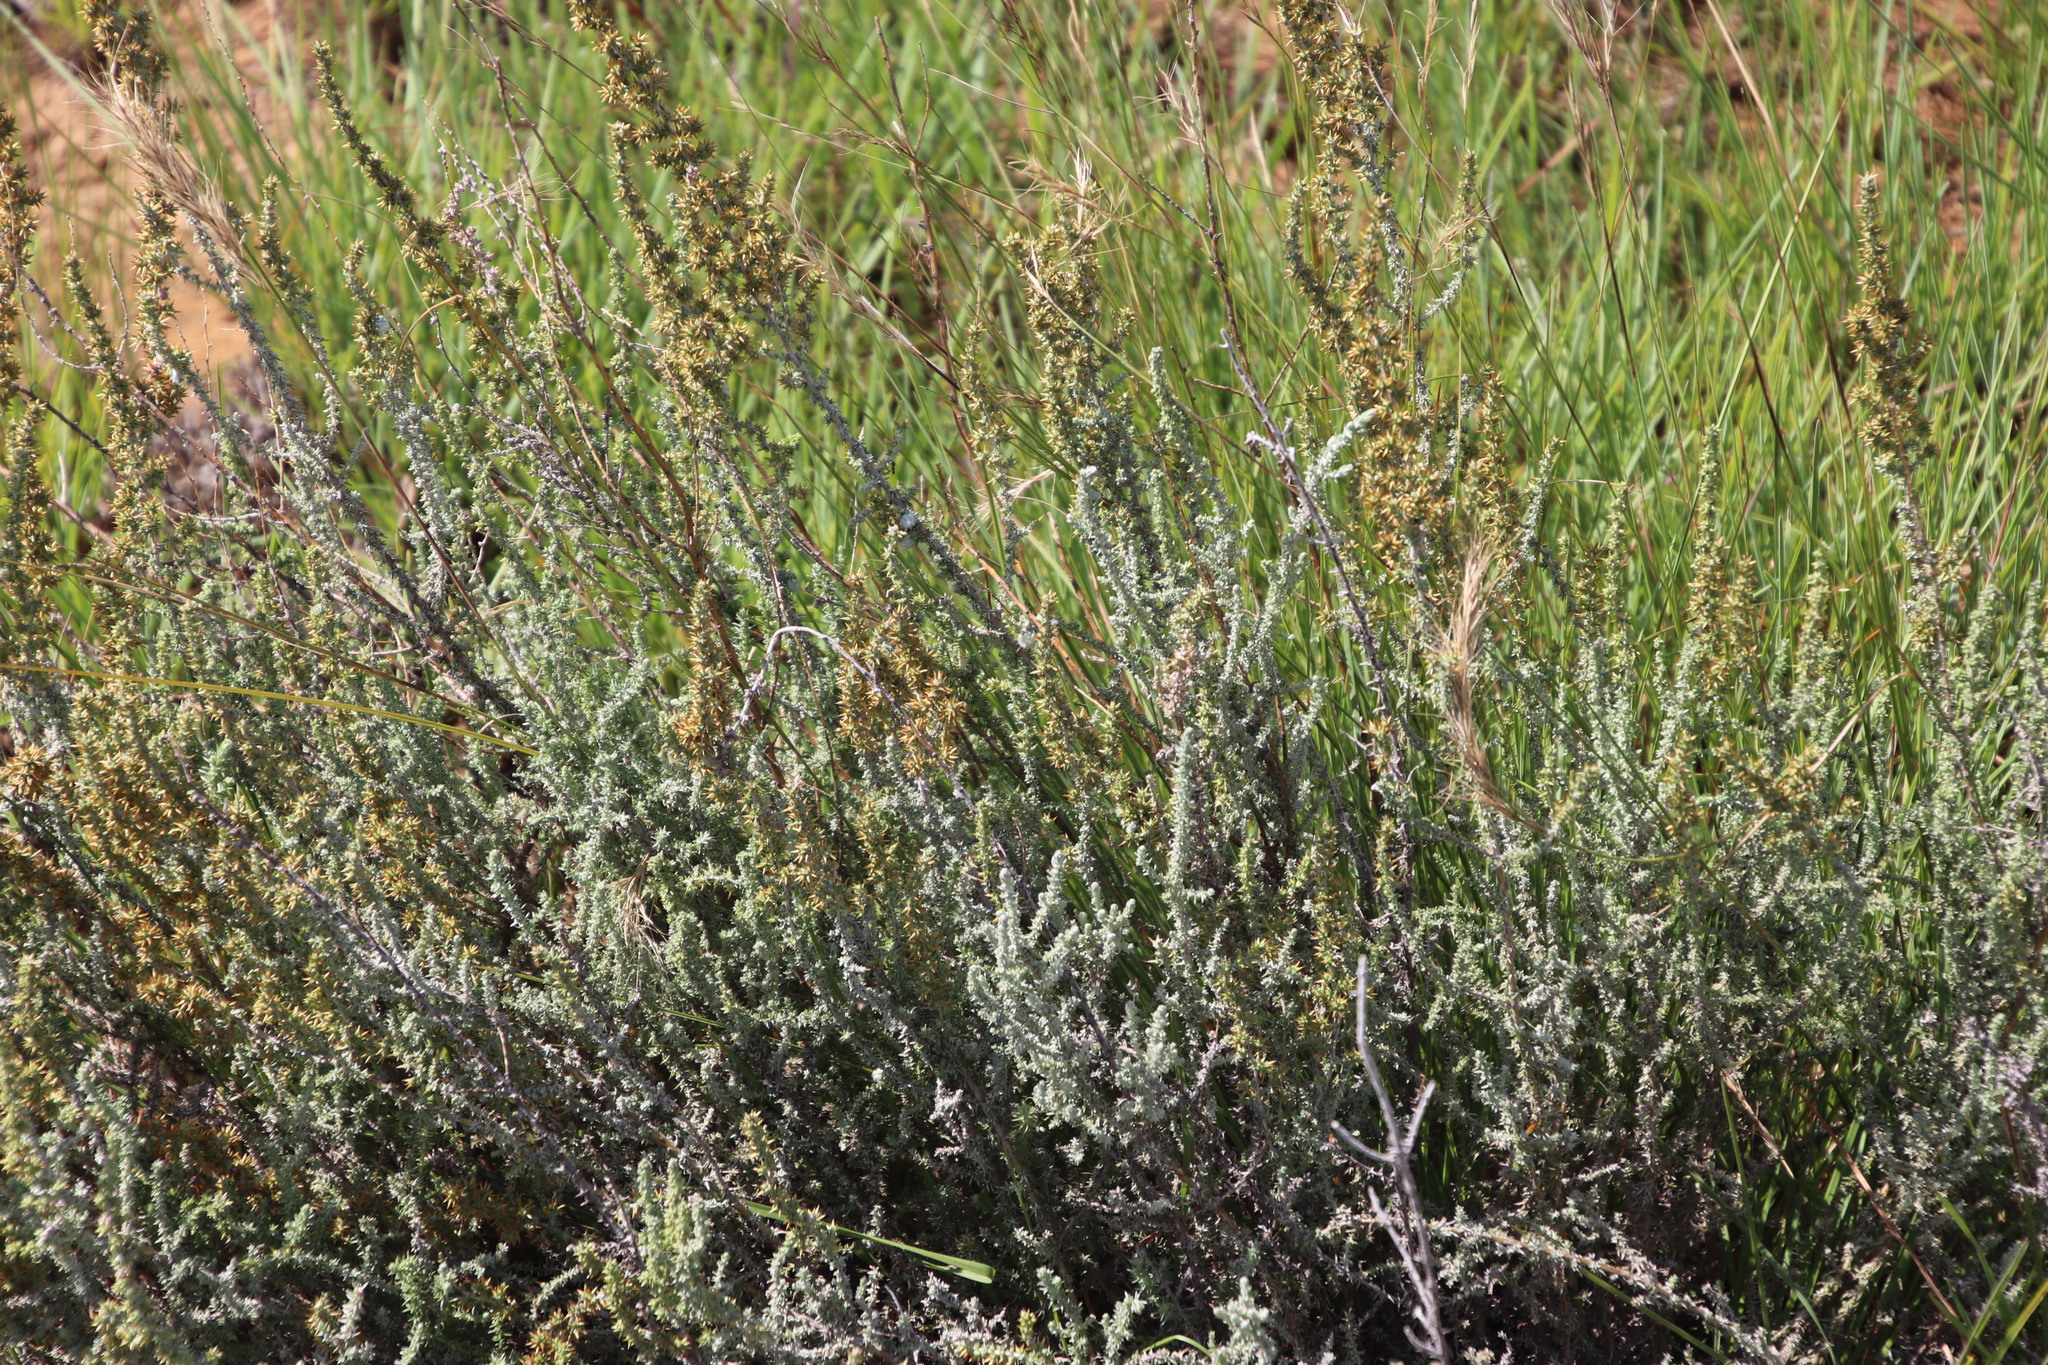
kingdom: Plantae
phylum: Tracheophyta
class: Magnoliopsida
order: Asterales
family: Asteraceae
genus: Seriphium
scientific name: Seriphium
